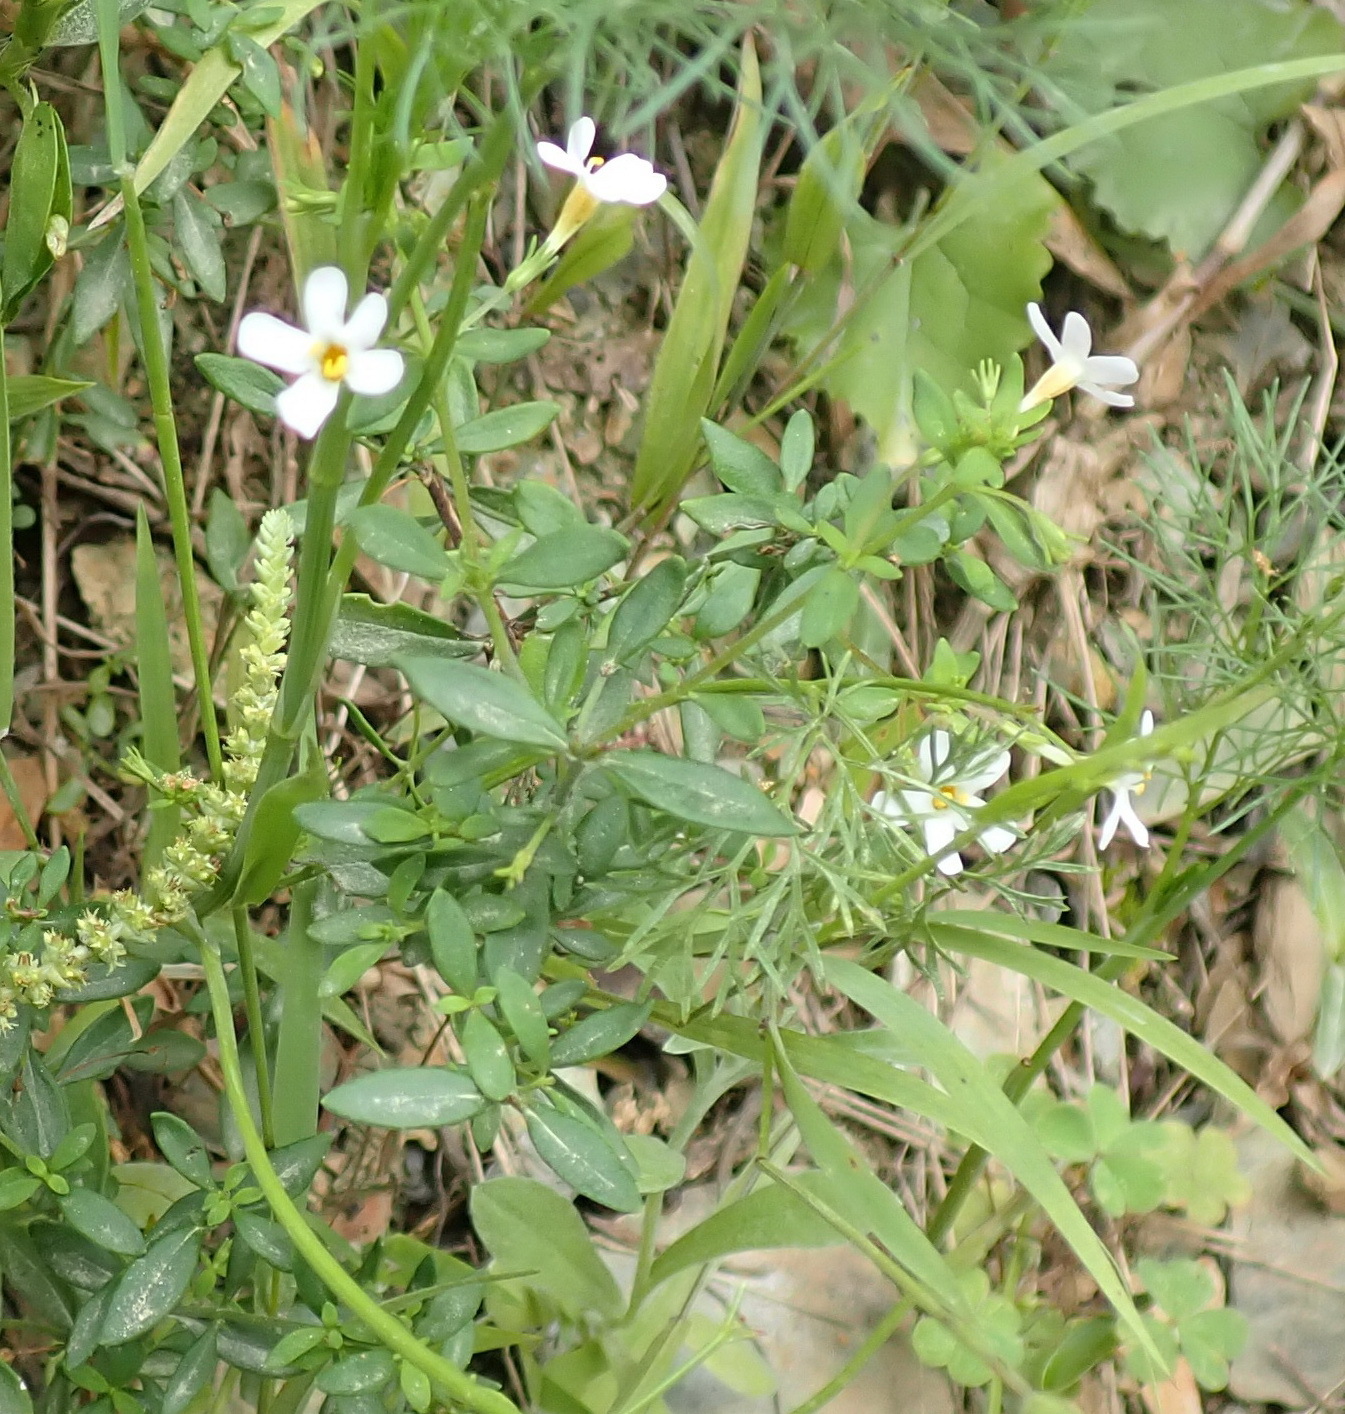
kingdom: Plantae
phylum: Tracheophyta
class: Magnoliopsida
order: Lamiales
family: Scrophulariaceae
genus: Chaenostoma
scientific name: Chaenostoma integrifolium
